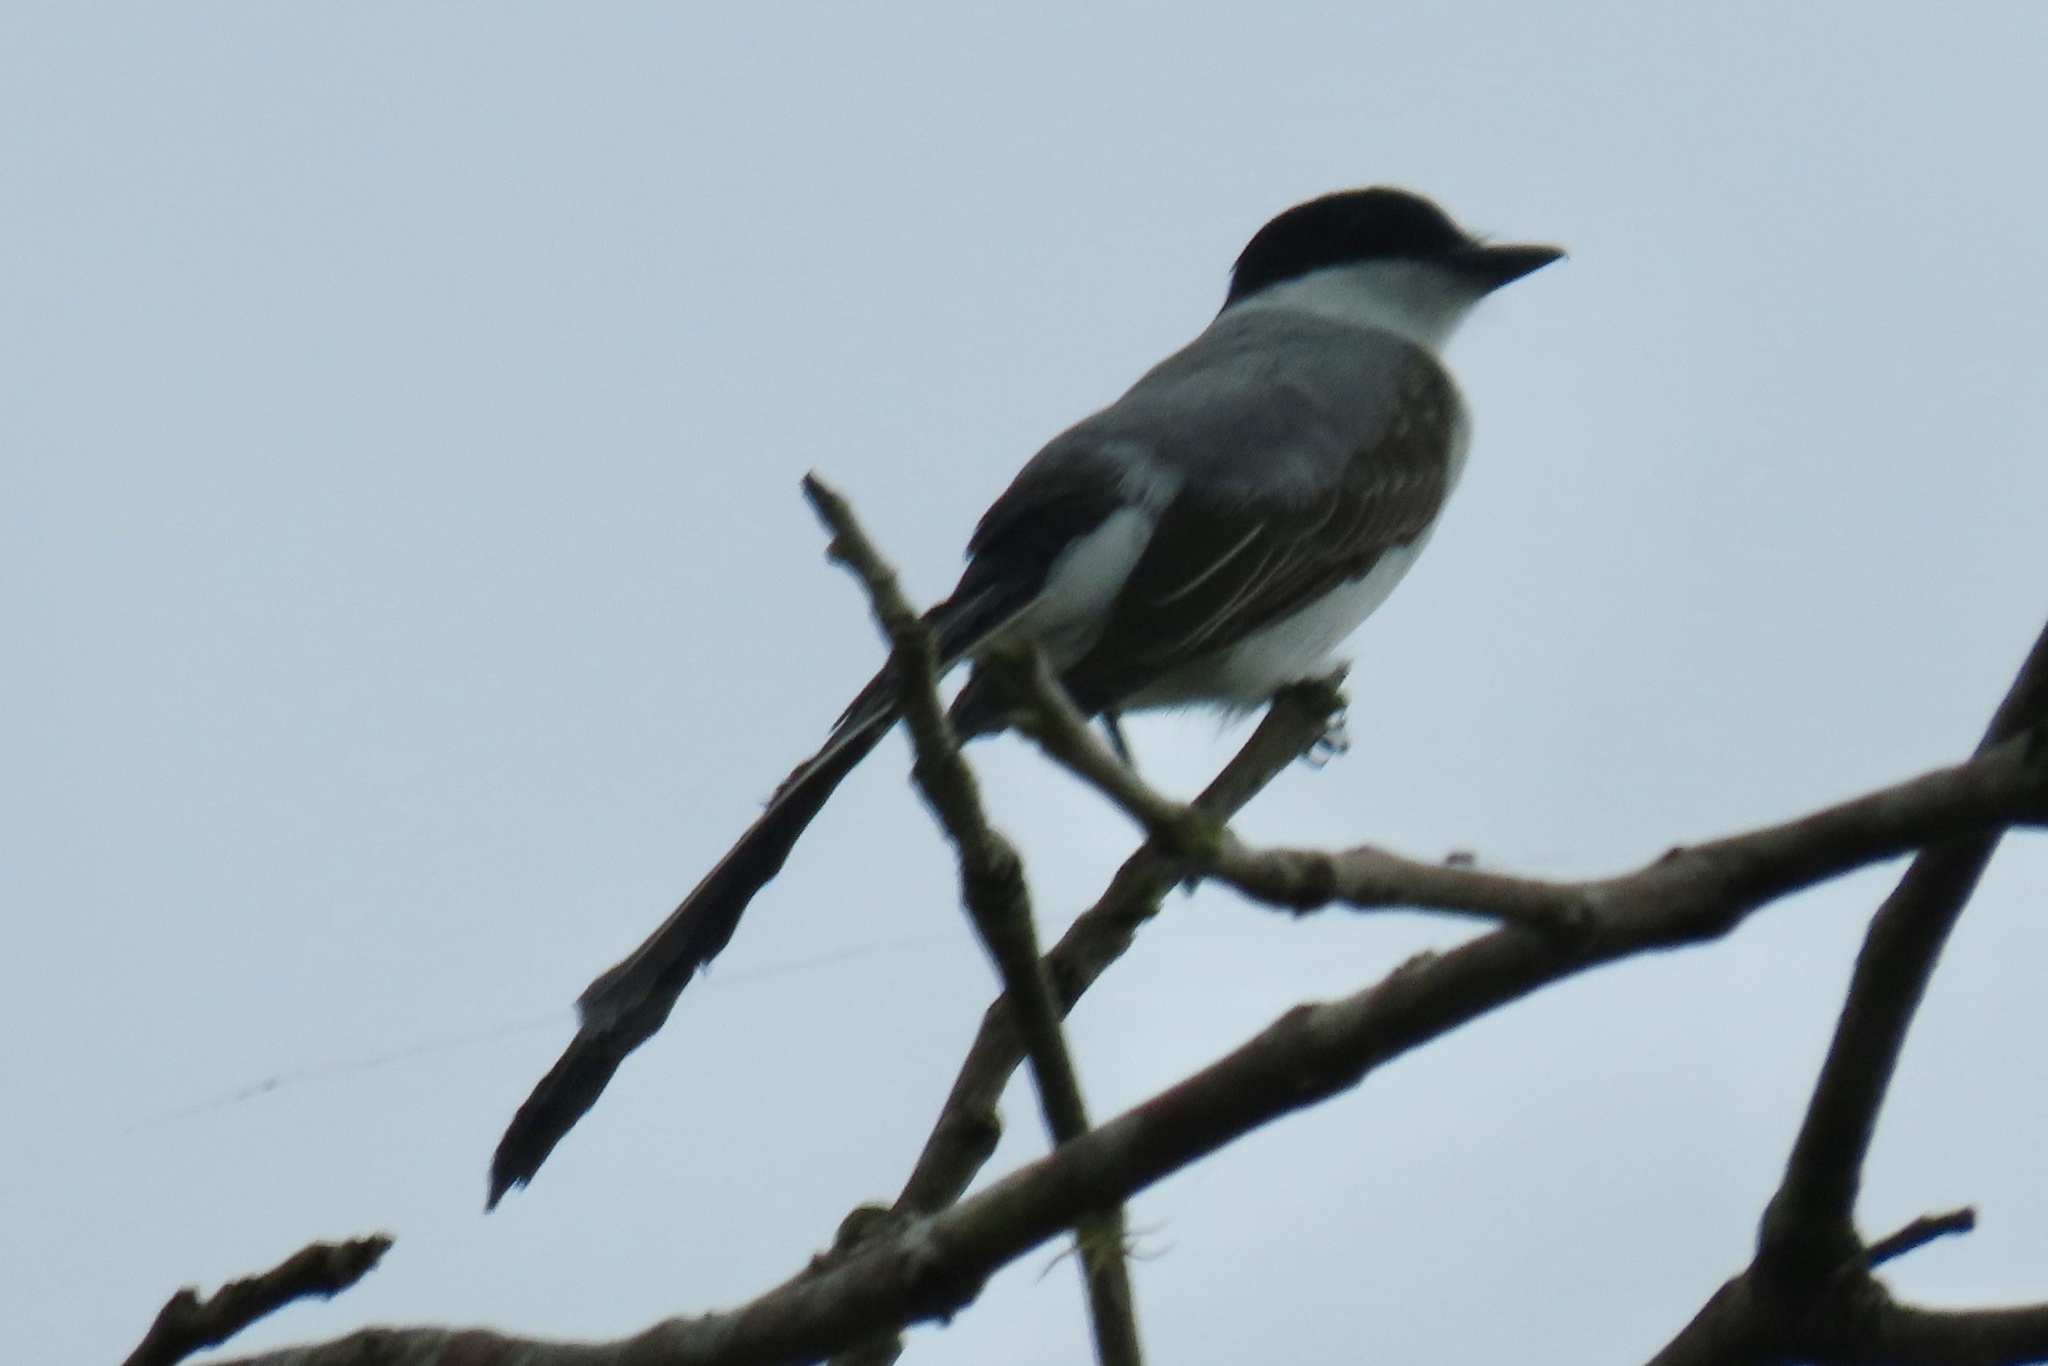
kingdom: Animalia
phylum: Chordata
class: Aves
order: Passeriformes
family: Tyrannidae
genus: Tyrannus
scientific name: Tyrannus savana
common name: Fork-tailed flycatcher
